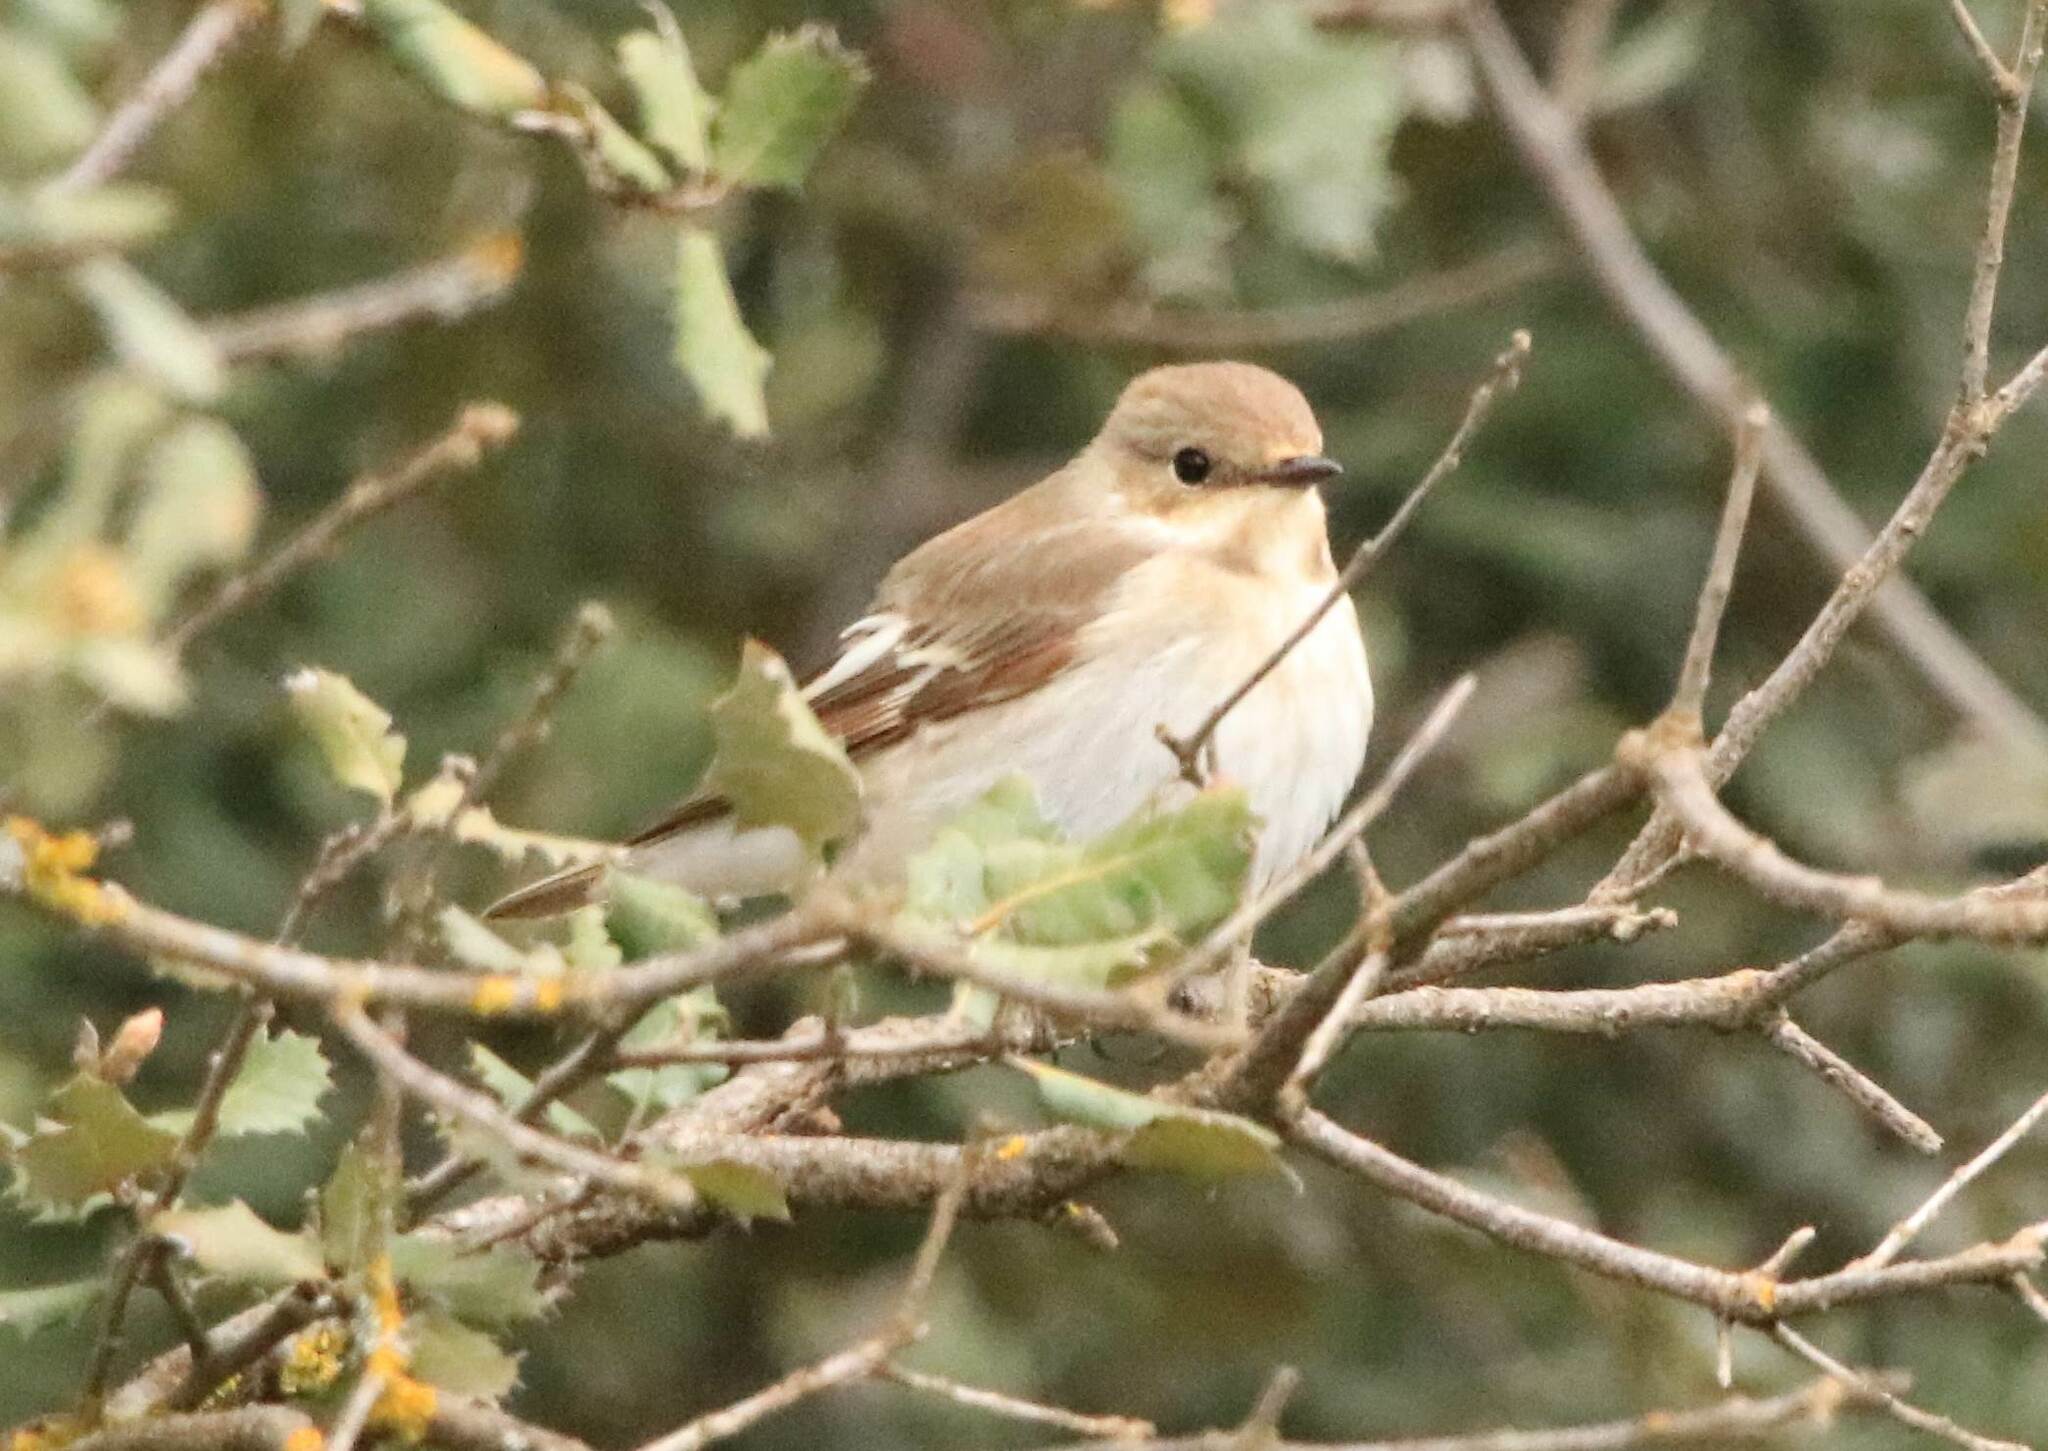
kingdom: Animalia
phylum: Chordata
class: Aves
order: Passeriformes
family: Muscicapidae
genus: Ficedula
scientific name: Ficedula speculigera
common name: Atlas pied flycatcher
